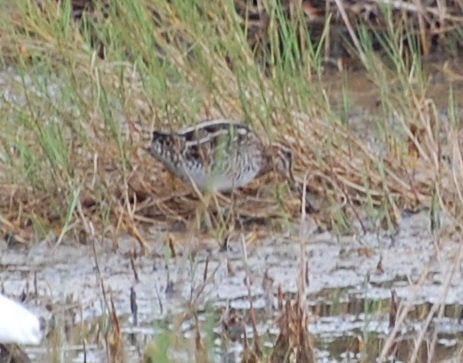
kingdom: Animalia
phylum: Chordata
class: Aves
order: Charadriiformes
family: Scolopacidae
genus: Gallinago
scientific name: Gallinago delicata
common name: Wilson's snipe
